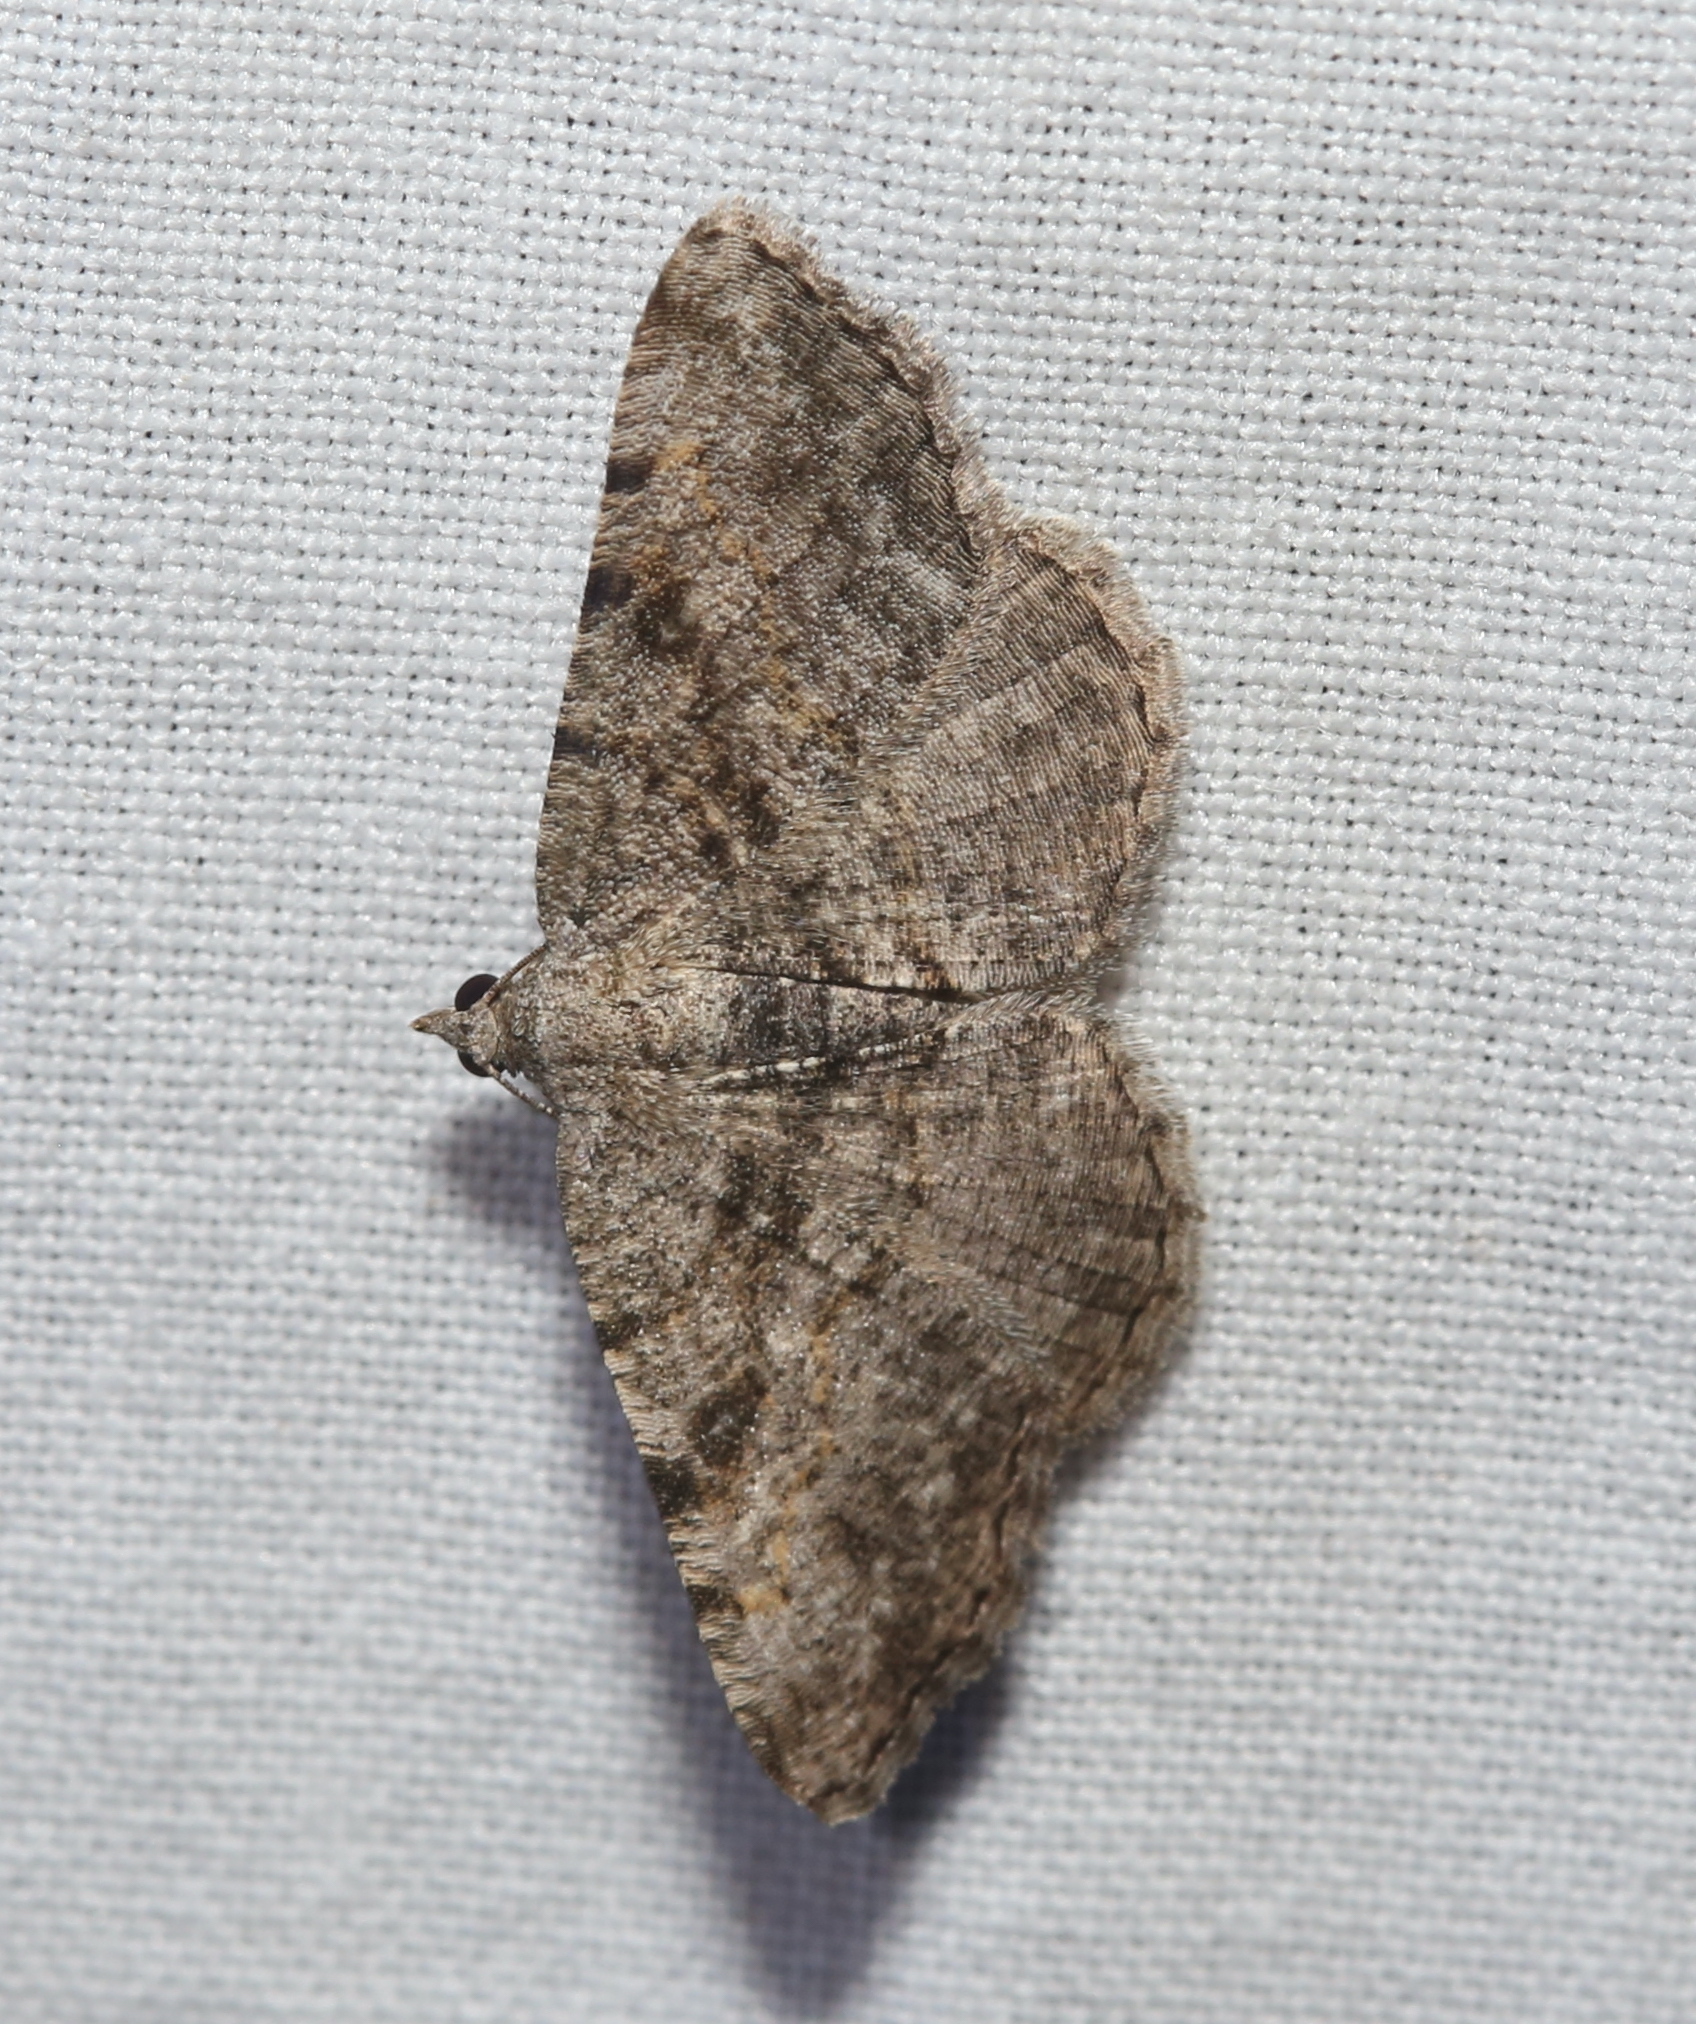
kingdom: Animalia
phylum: Arthropoda
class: Insecta
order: Lepidoptera
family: Geometridae
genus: Digrammia
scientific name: Digrammia gnophosaria
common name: Hollow-spotted angle
